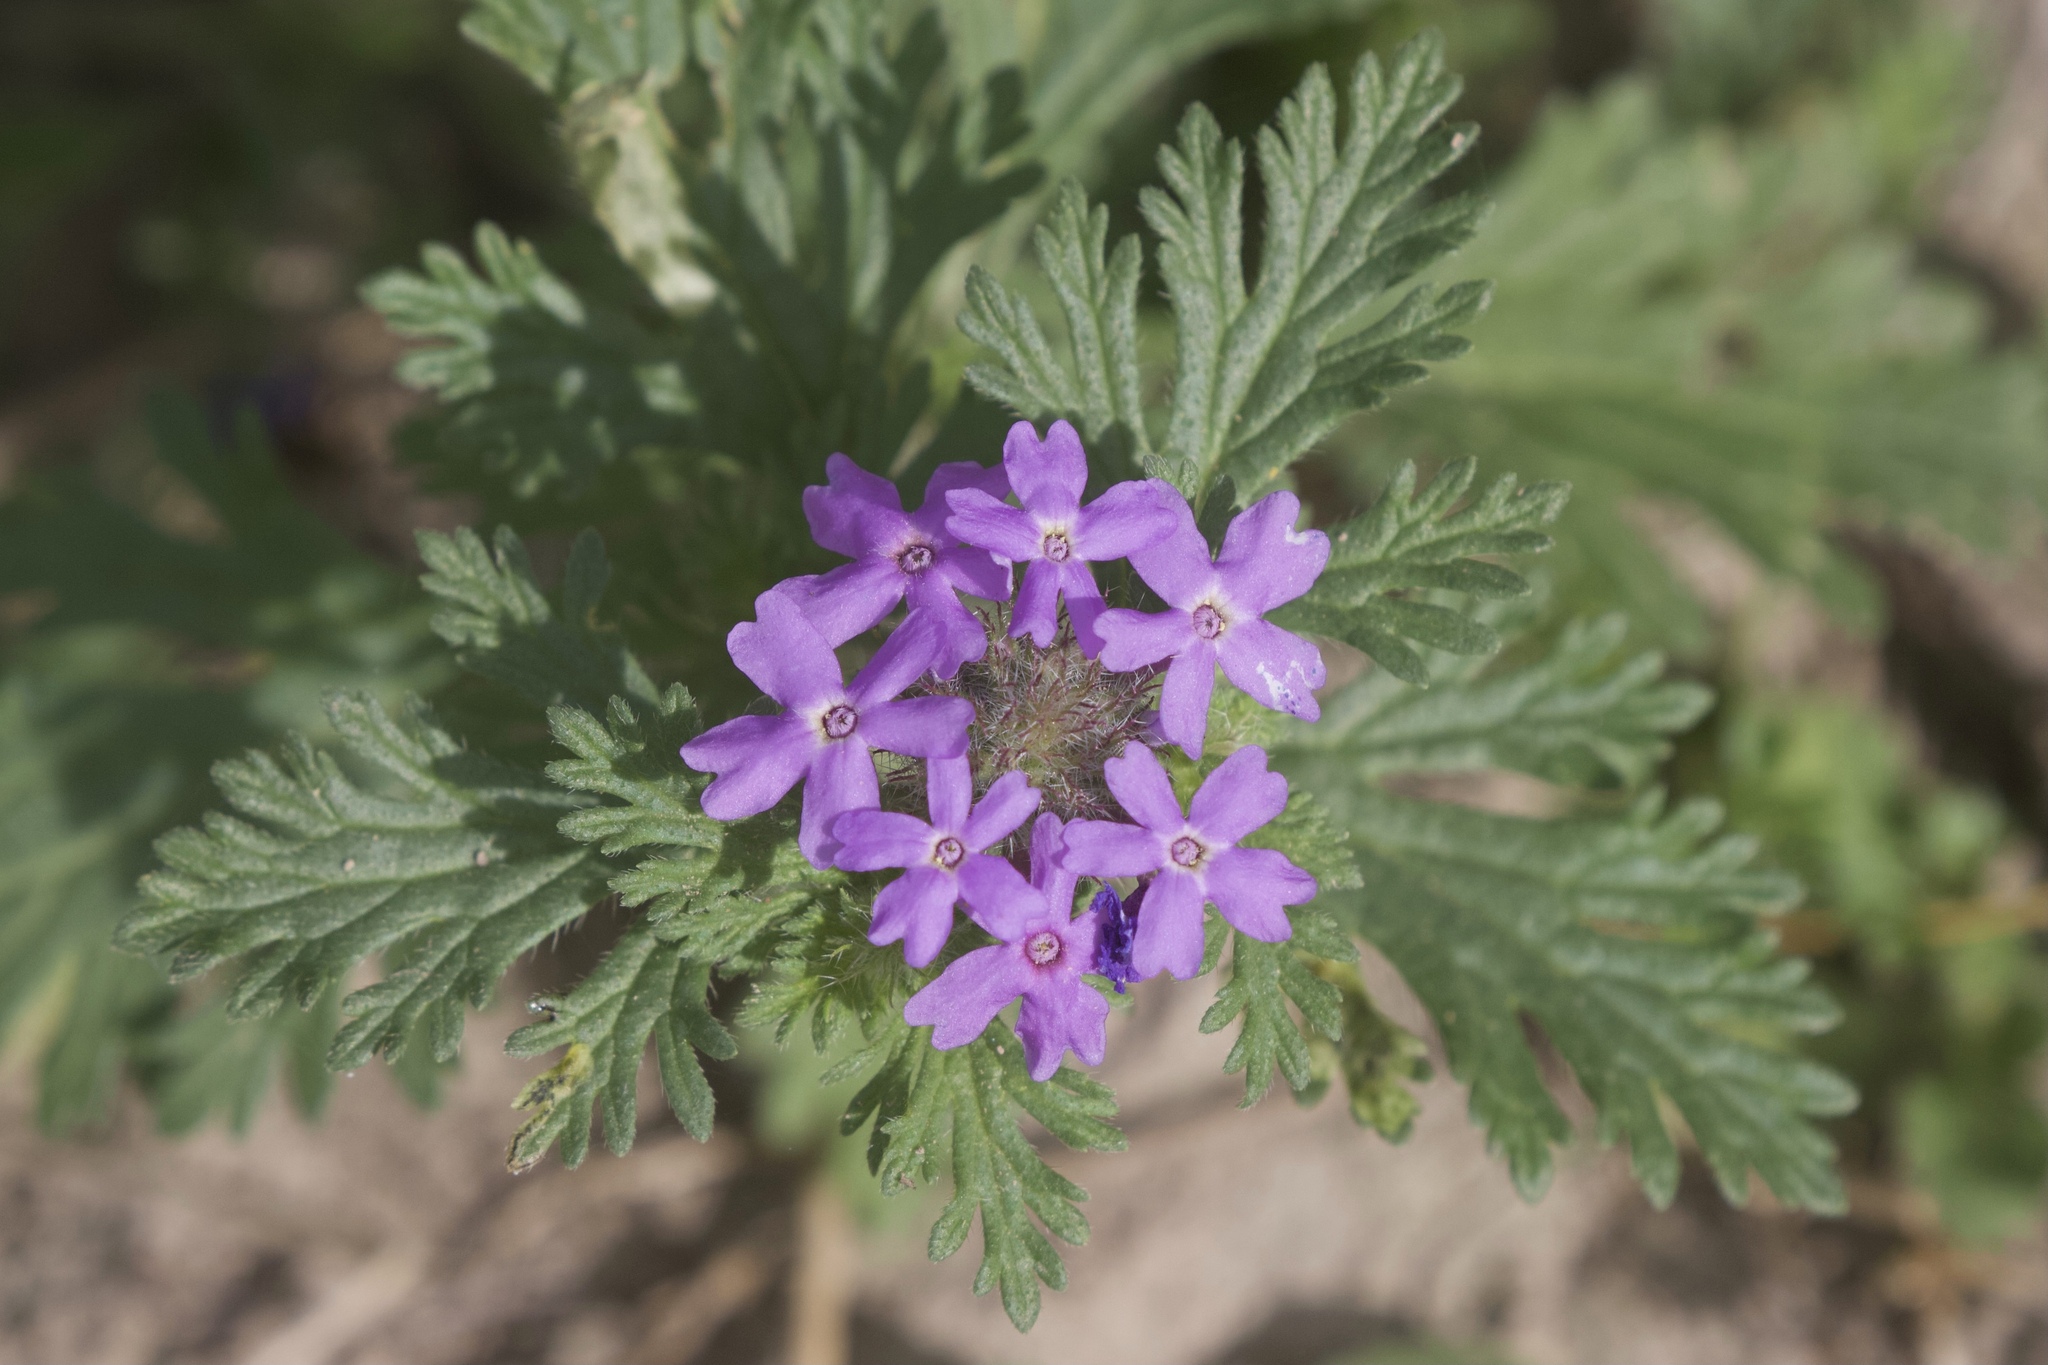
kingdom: Plantae
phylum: Tracheophyta
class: Magnoliopsida
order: Lamiales
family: Verbenaceae
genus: Verbena
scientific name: Verbena bipinnatifida
